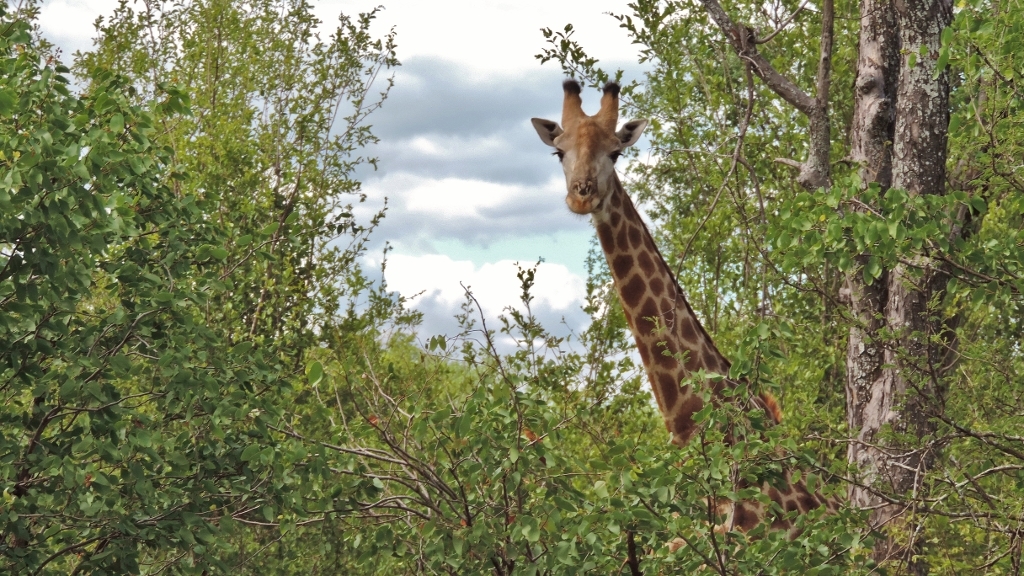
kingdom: Animalia
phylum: Chordata
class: Mammalia
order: Artiodactyla
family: Giraffidae
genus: Giraffa
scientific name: Giraffa giraffa
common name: Southern giraffe
